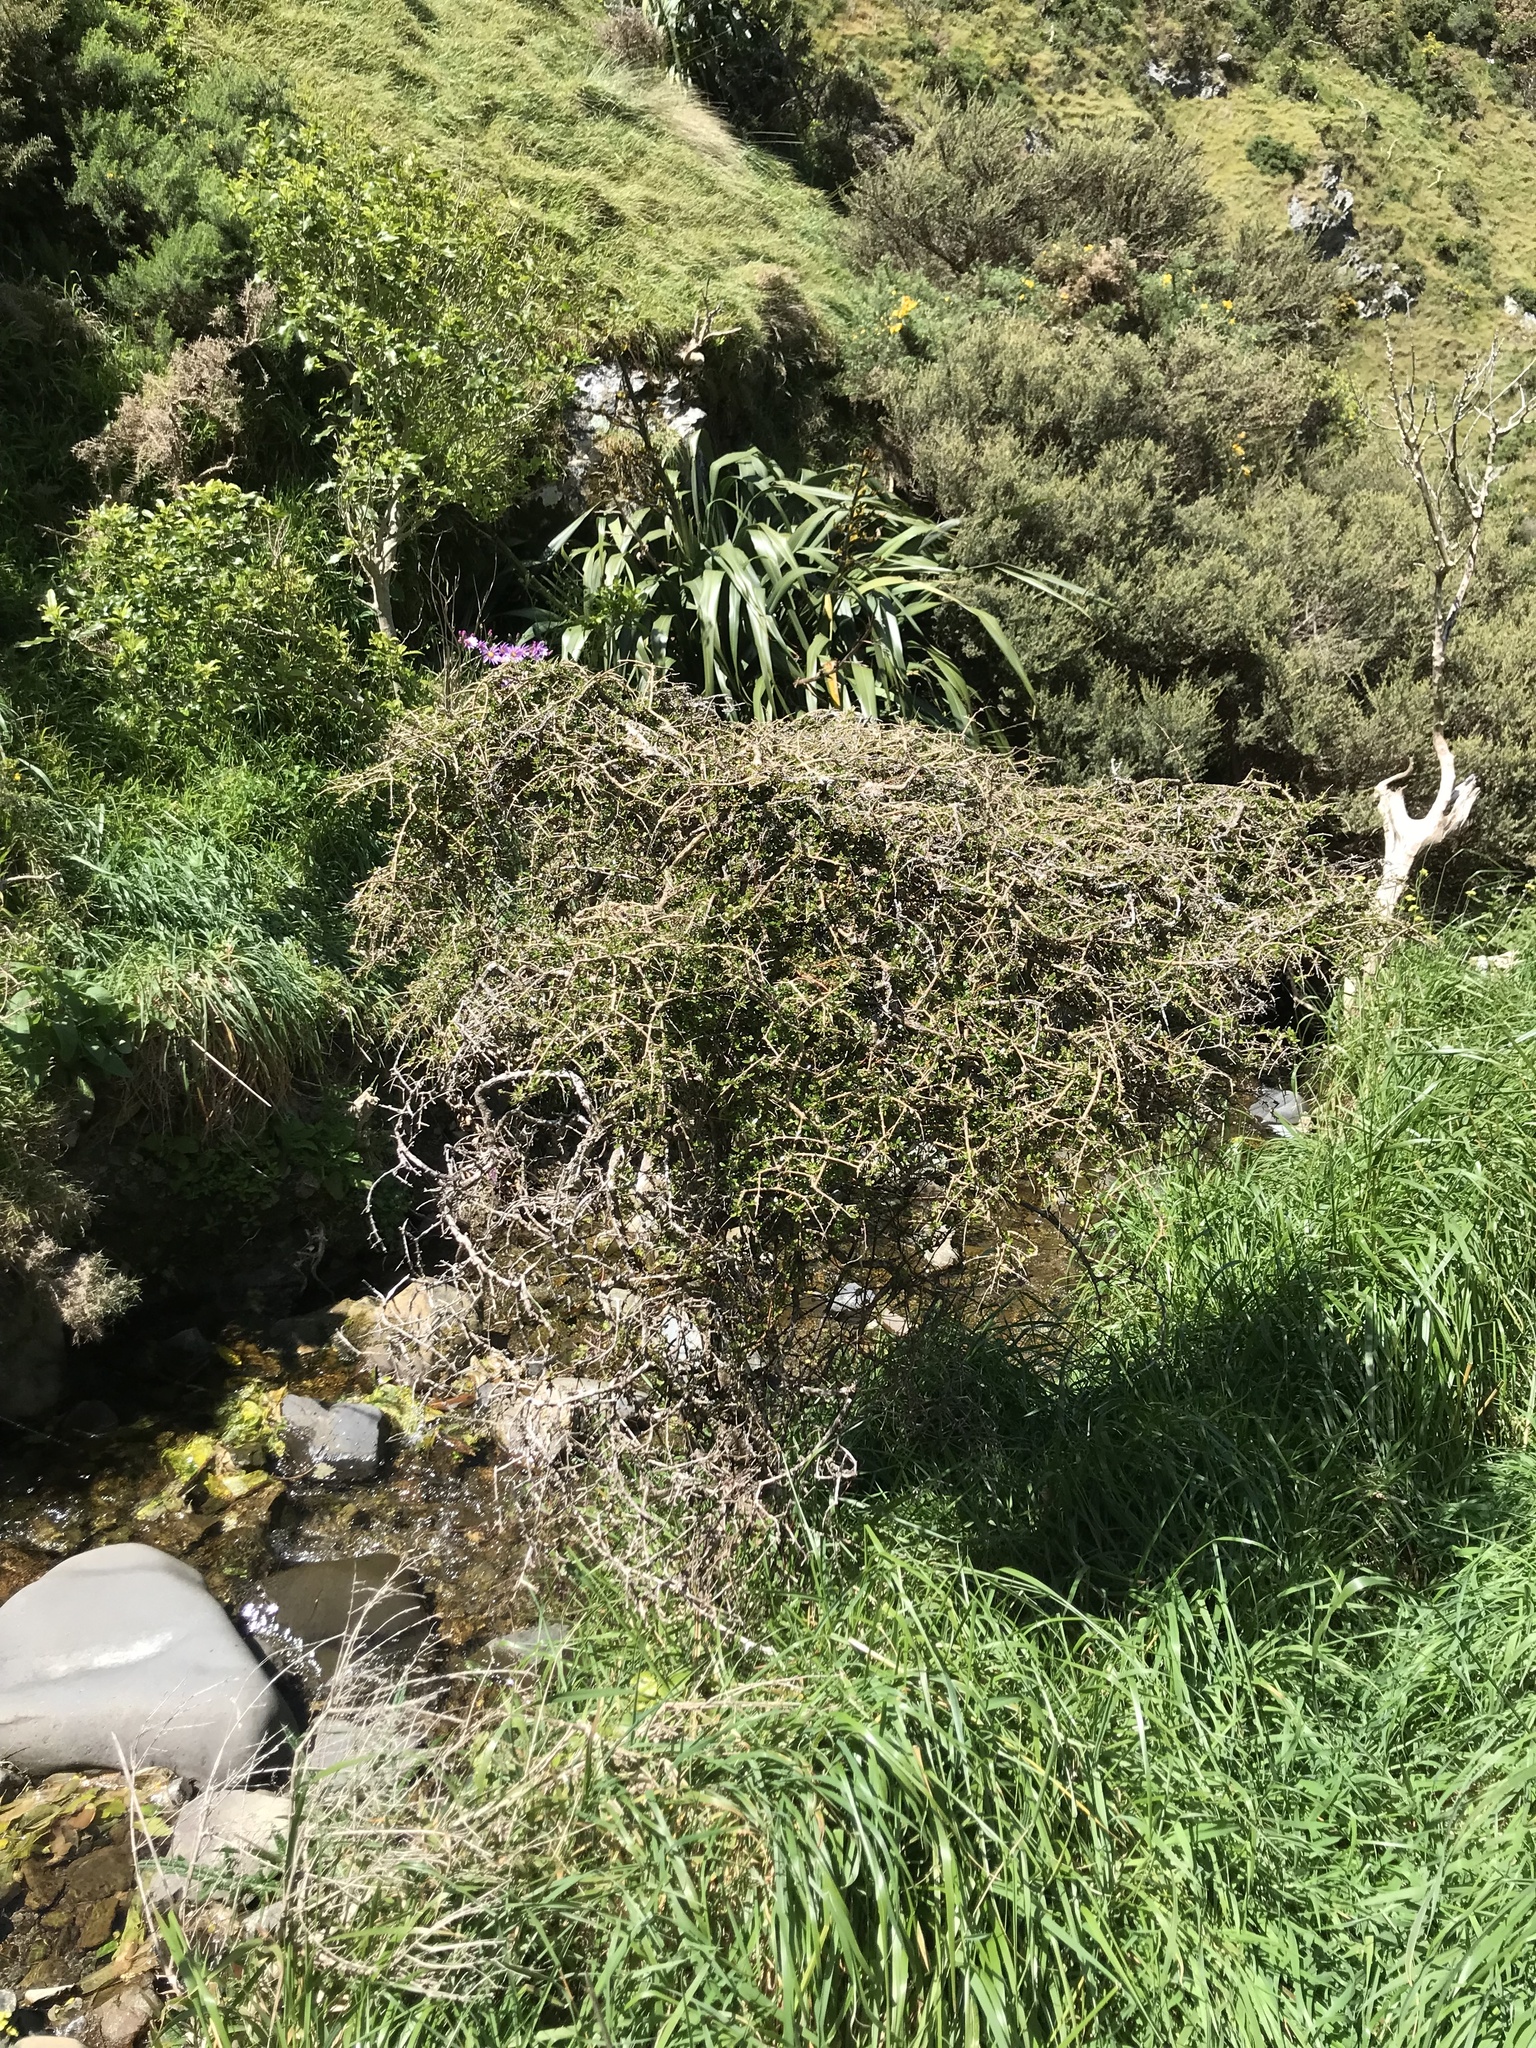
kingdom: Plantae
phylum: Tracheophyta
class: Magnoliopsida
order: Gentianales
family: Rubiaceae
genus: Coprosma
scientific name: Coprosma propinqua
